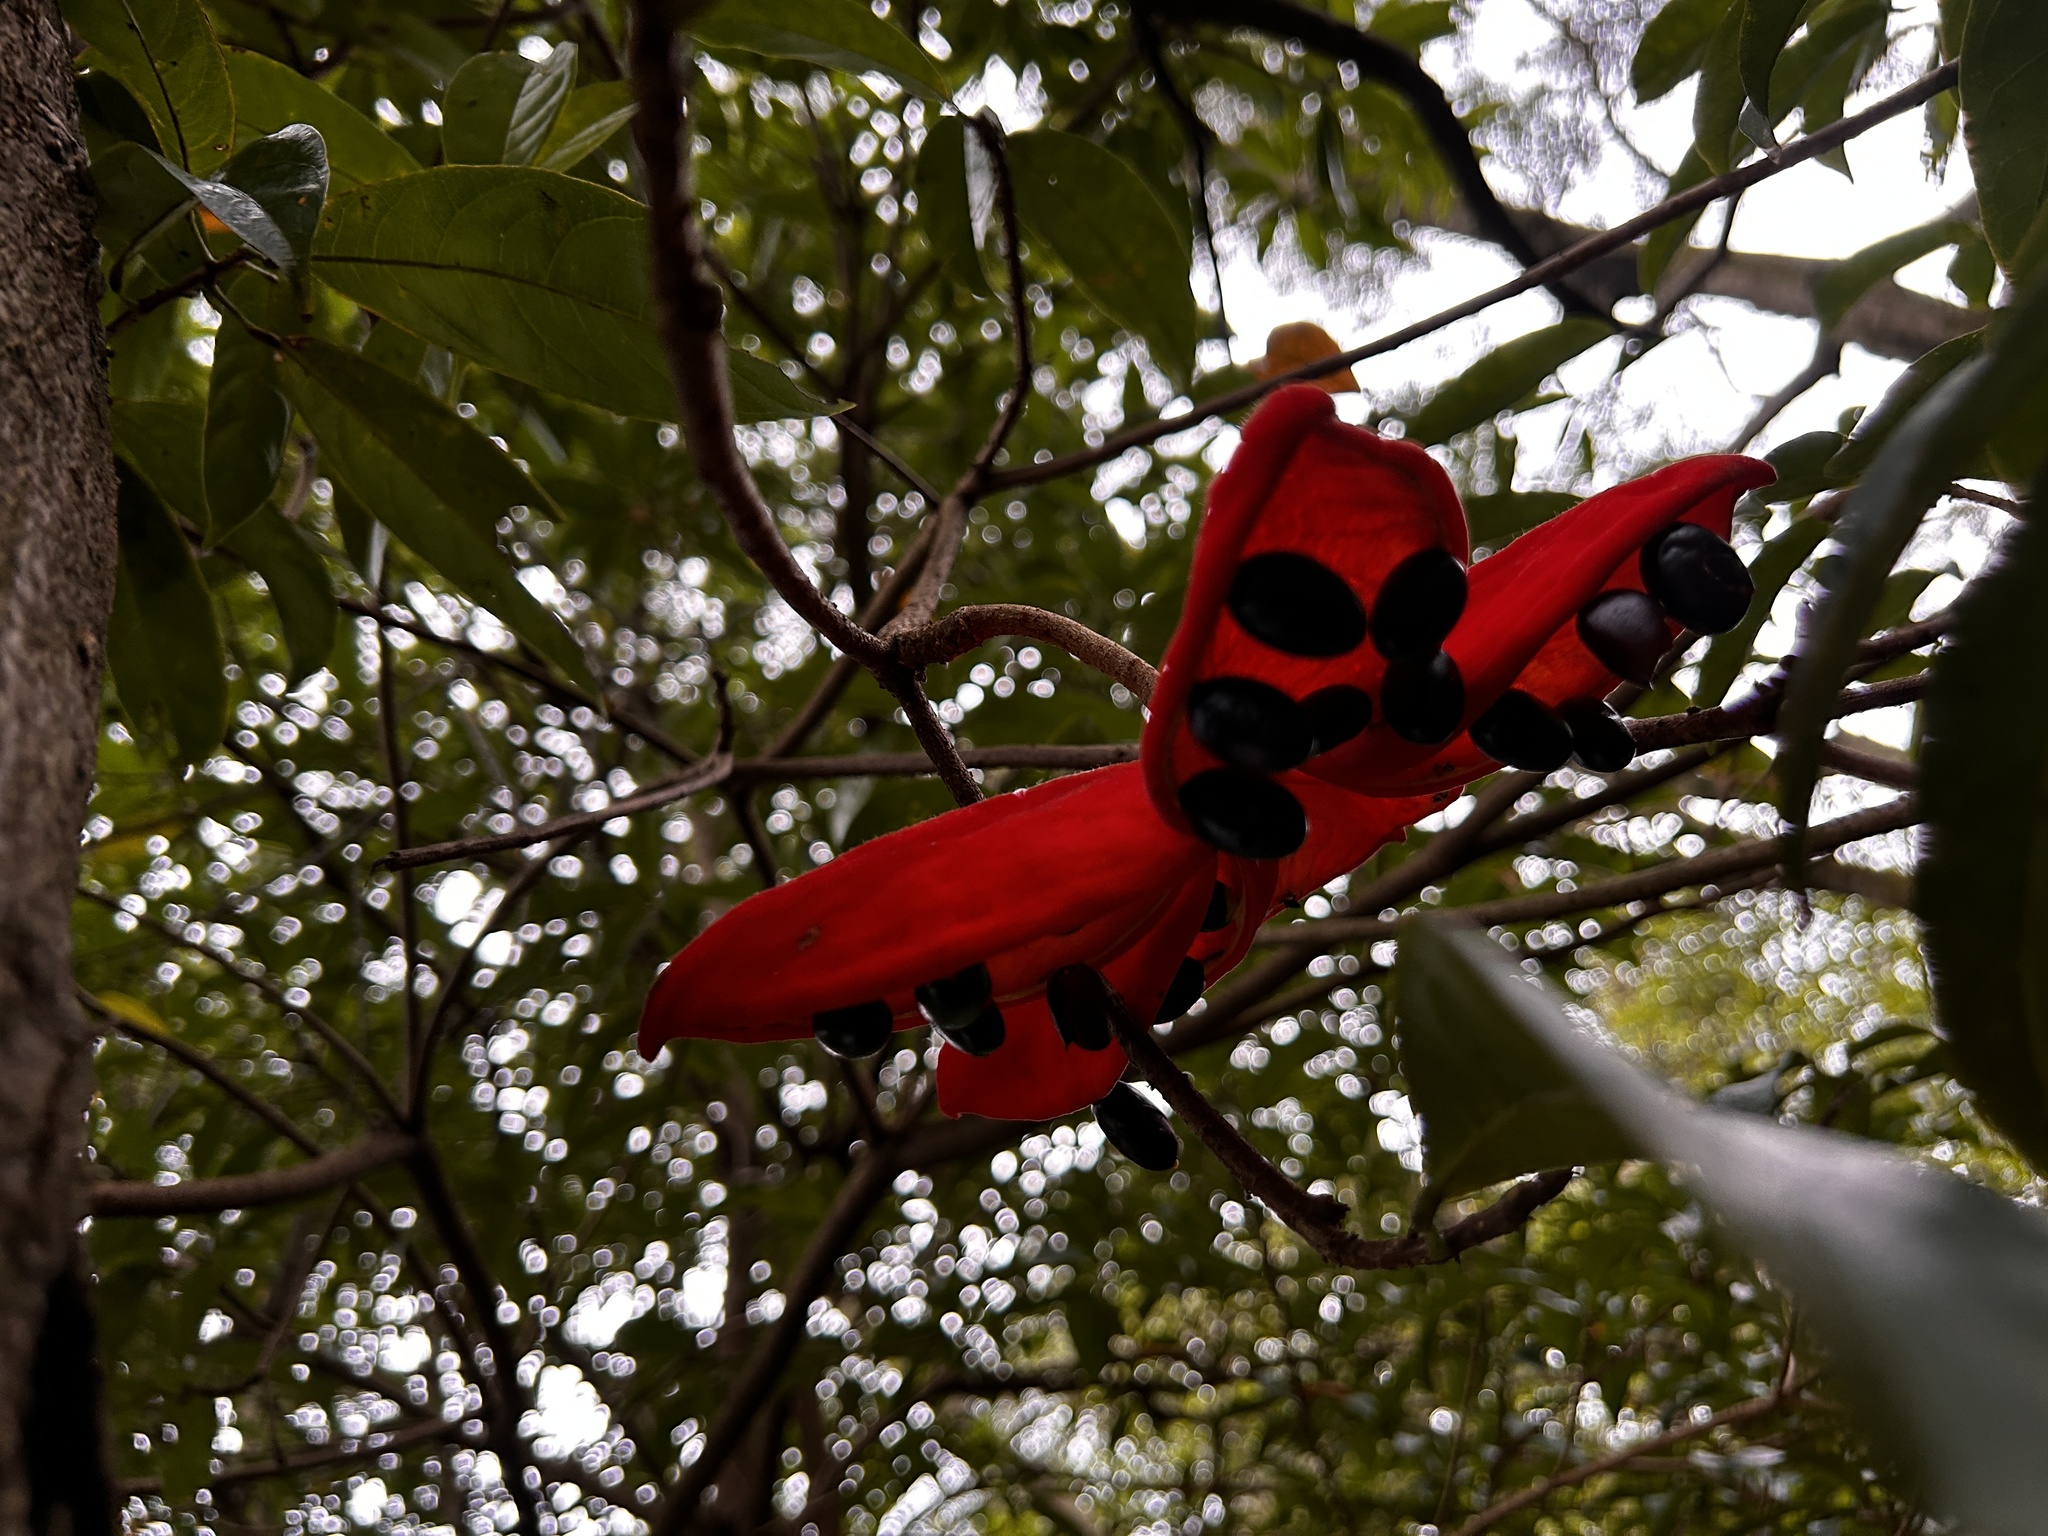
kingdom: Plantae
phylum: Tracheophyta
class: Magnoliopsida
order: Malvales
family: Malvaceae
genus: Sterculia
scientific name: Sterculia lanceolata
